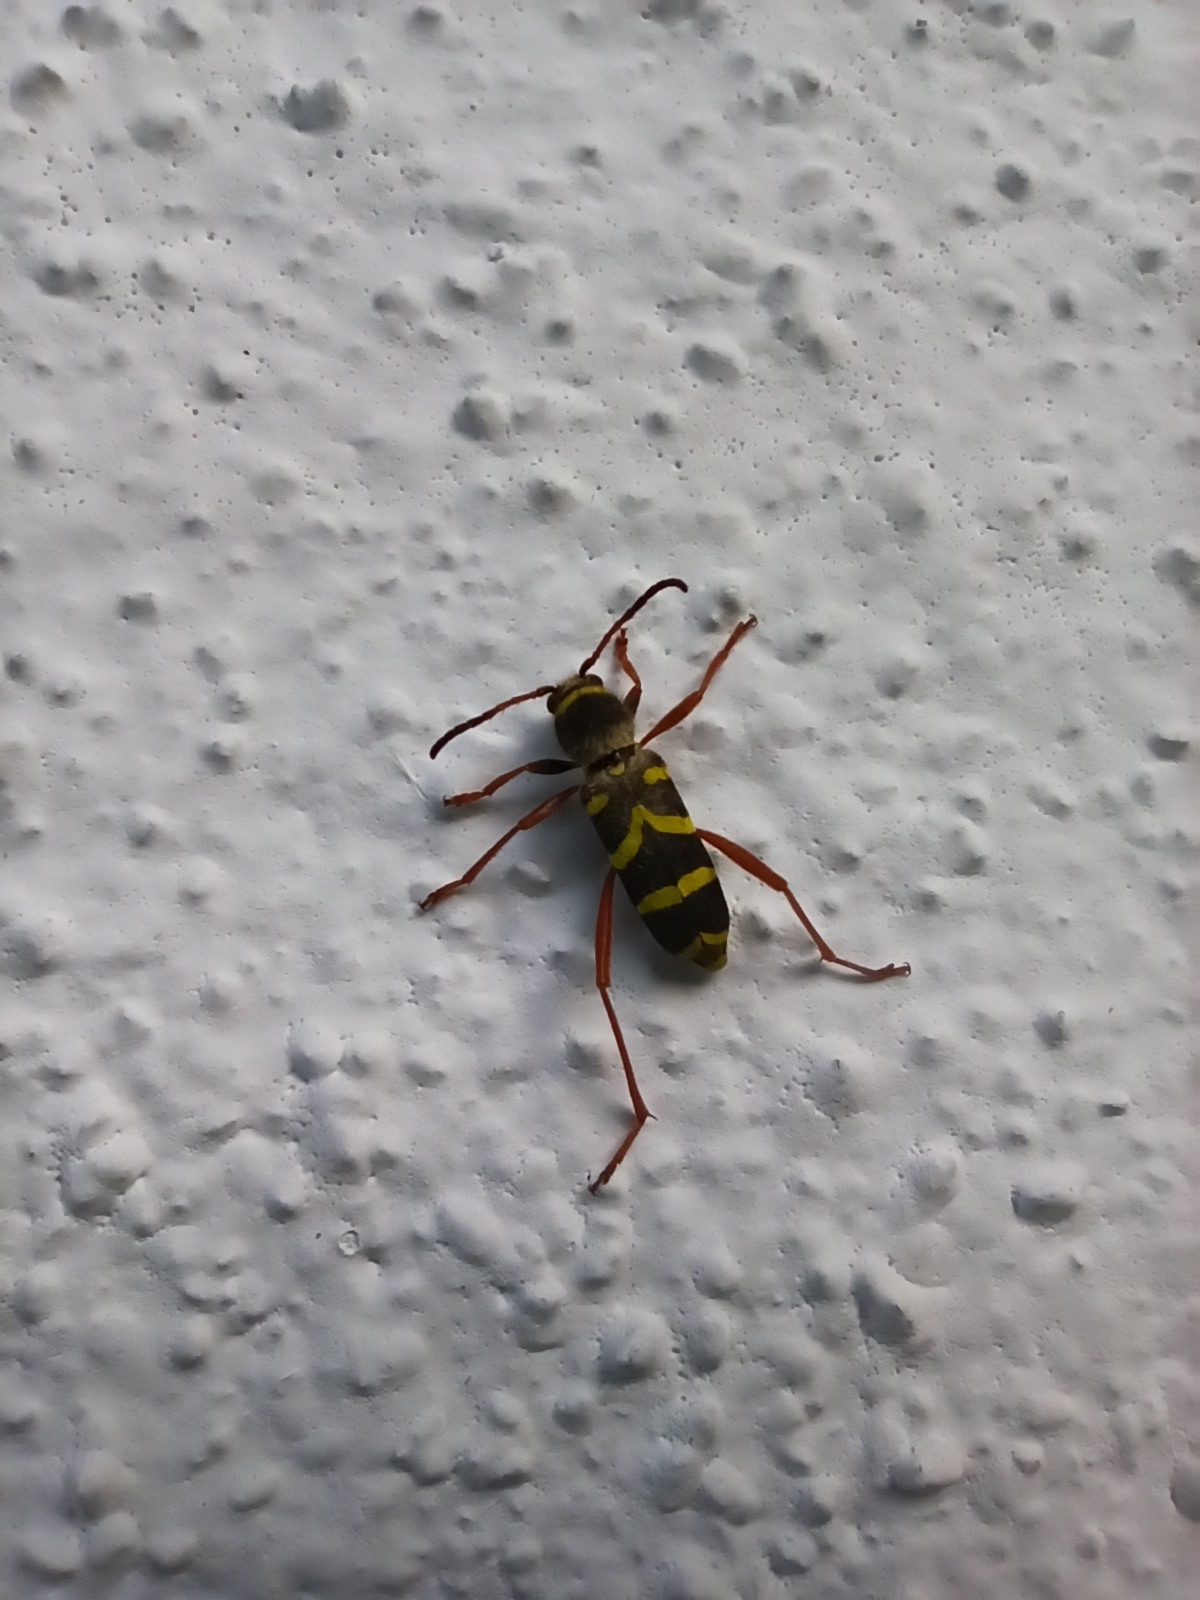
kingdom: Animalia
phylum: Arthropoda
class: Insecta
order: Coleoptera
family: Cerambycidae
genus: Clytus
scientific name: Clytus arietis
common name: Wasp beetle
